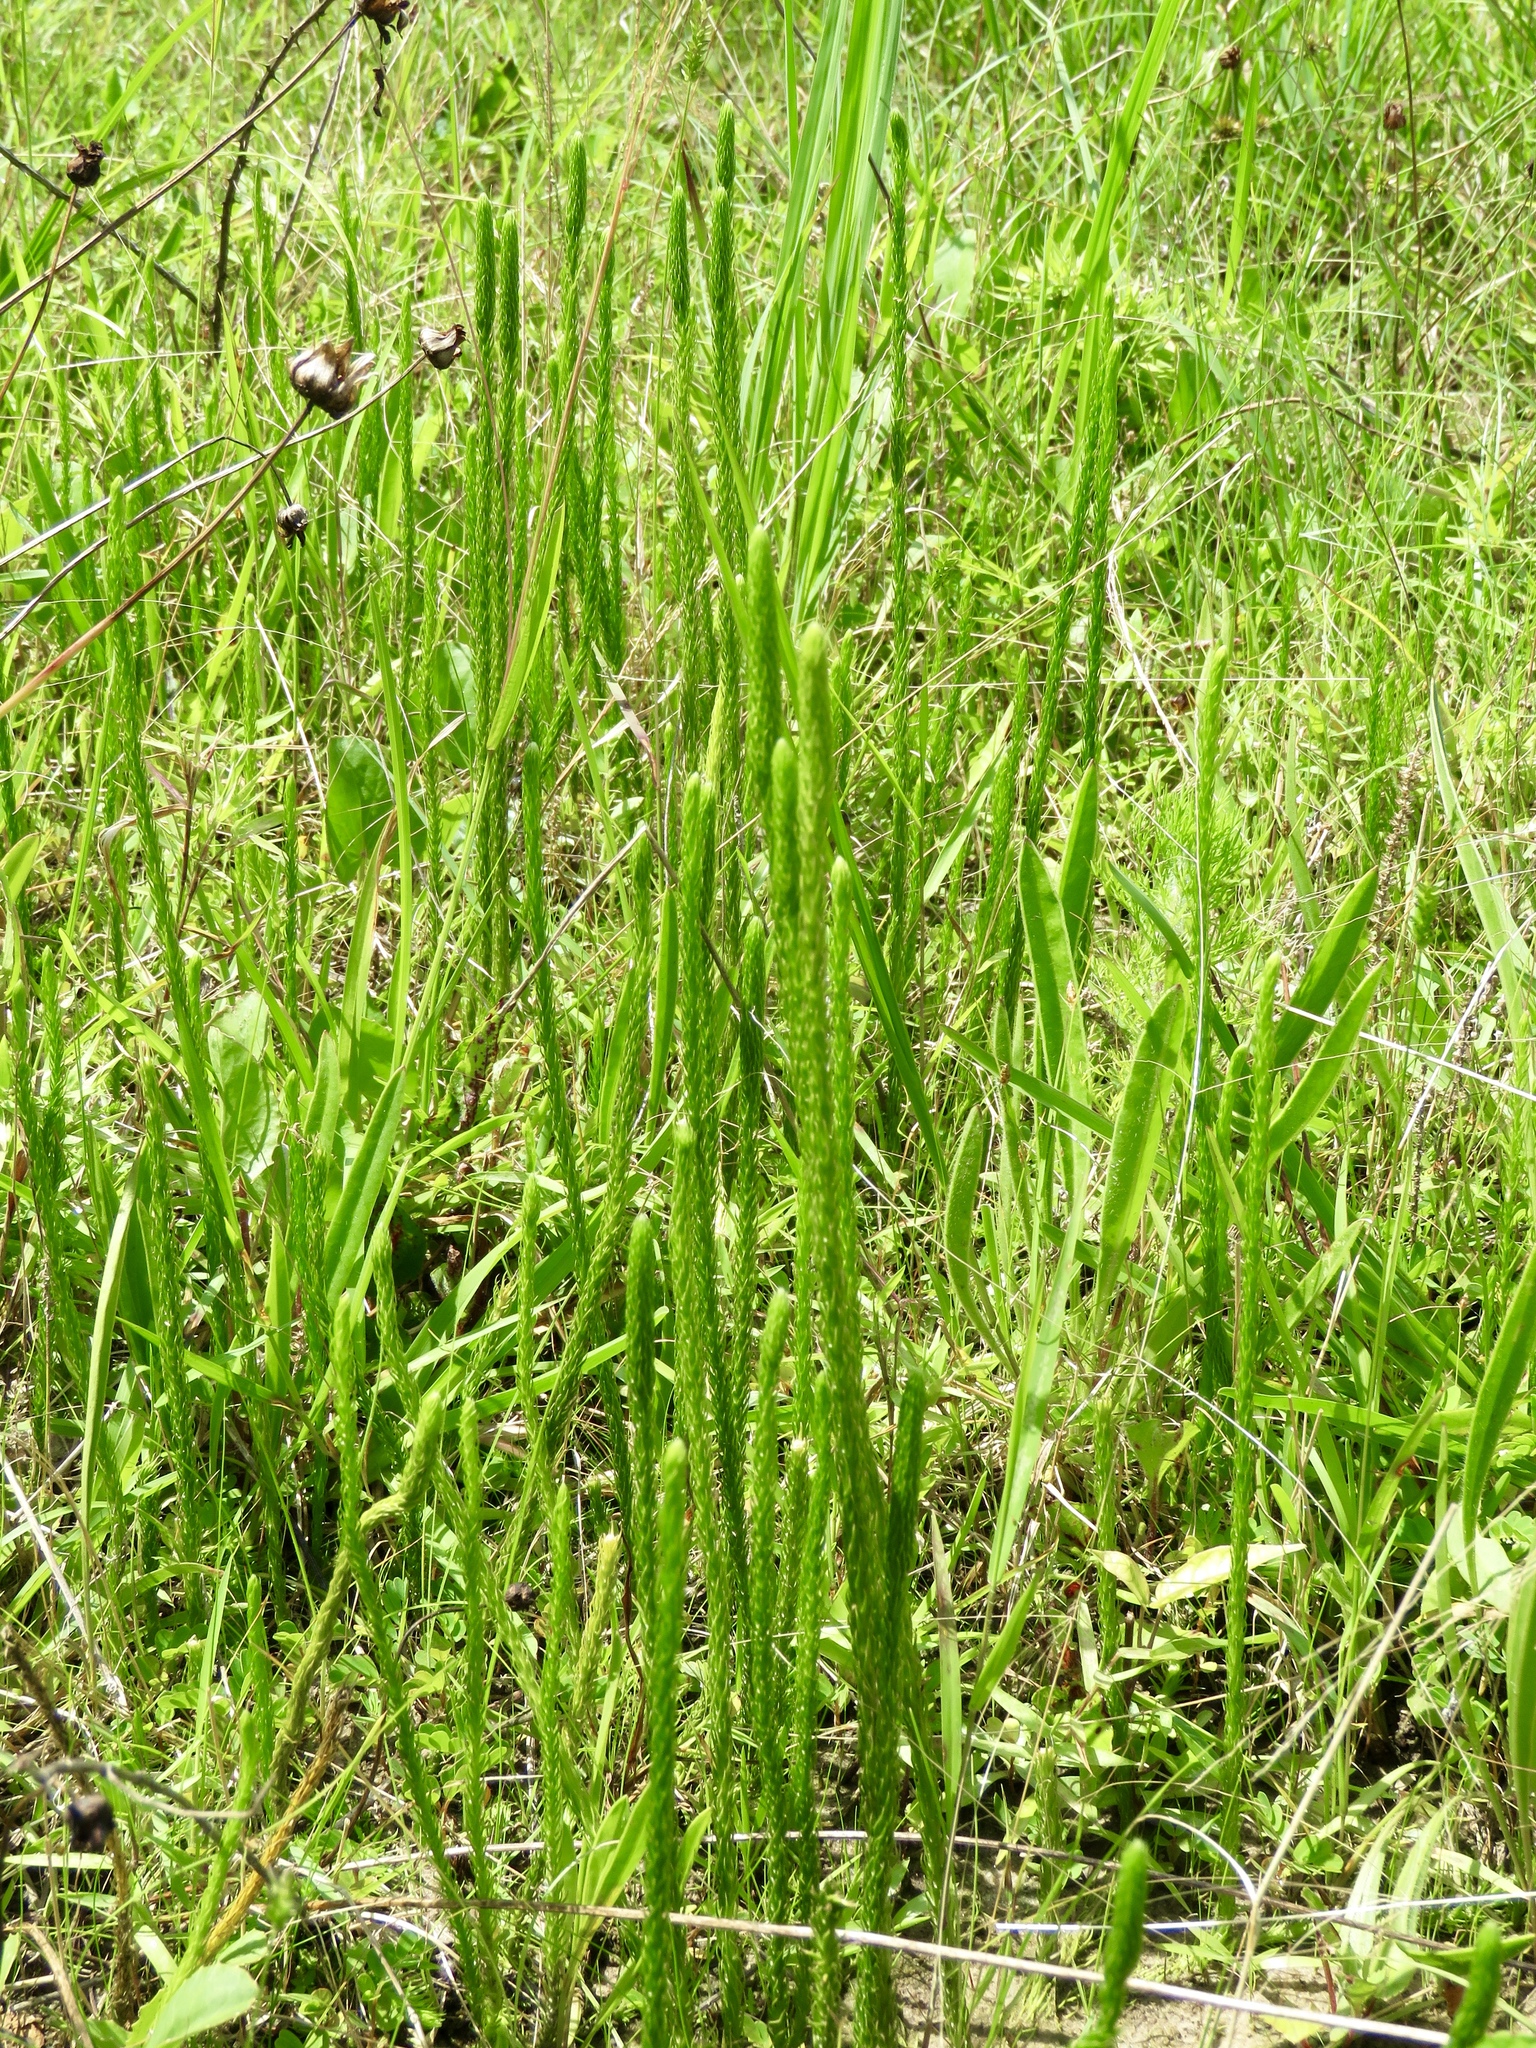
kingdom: Plantae
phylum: Tracheophyta
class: Lycopodiopsida
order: Lycopodiales
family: Lycopodiaceae
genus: Lycopodiella
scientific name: Lycopodiella appressa
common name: Appressed bog clubmoss
